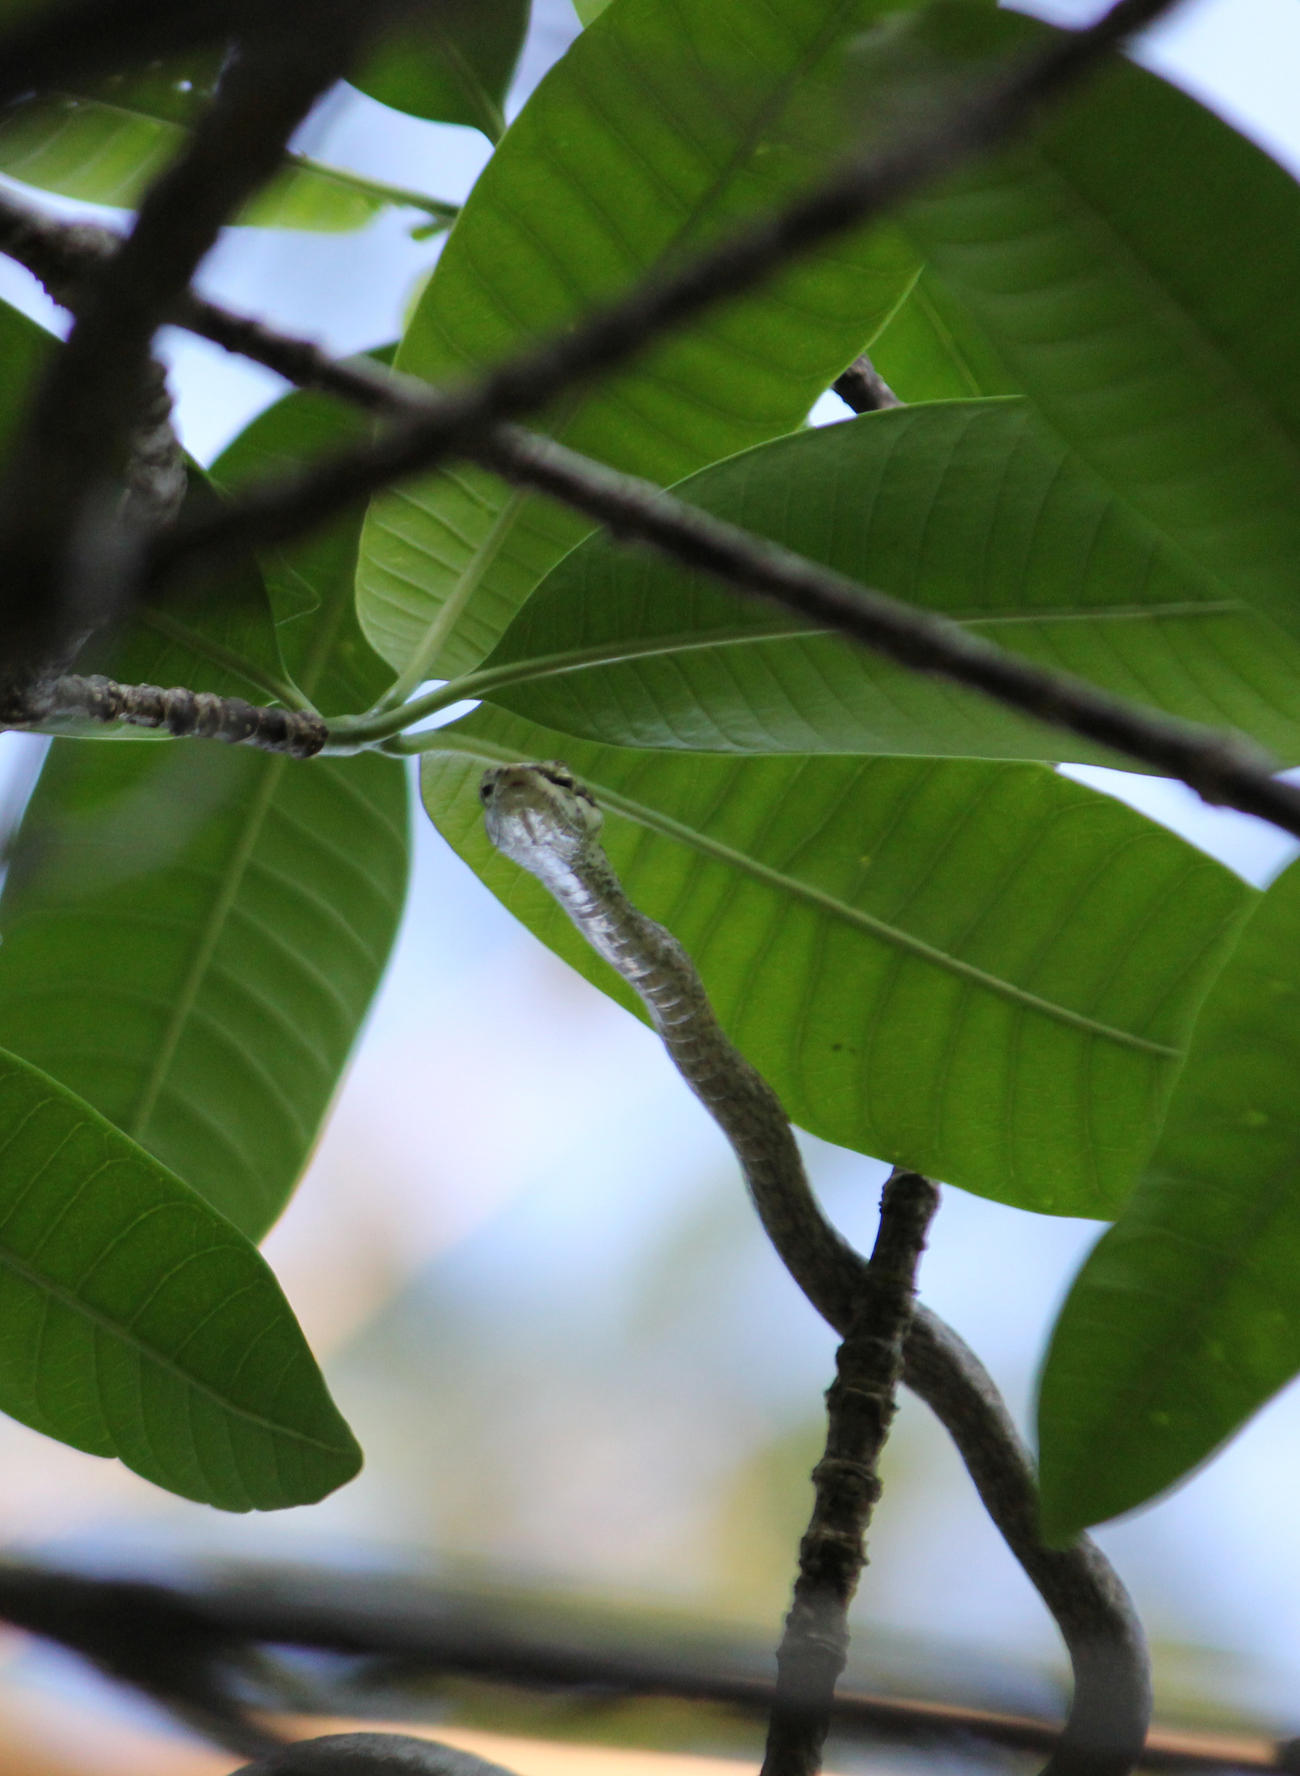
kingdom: Animalia
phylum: Chordata
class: Squamata
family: Colubridae
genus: Thelotornis
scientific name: Thelotornis capensis
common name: Savanna vine snake
